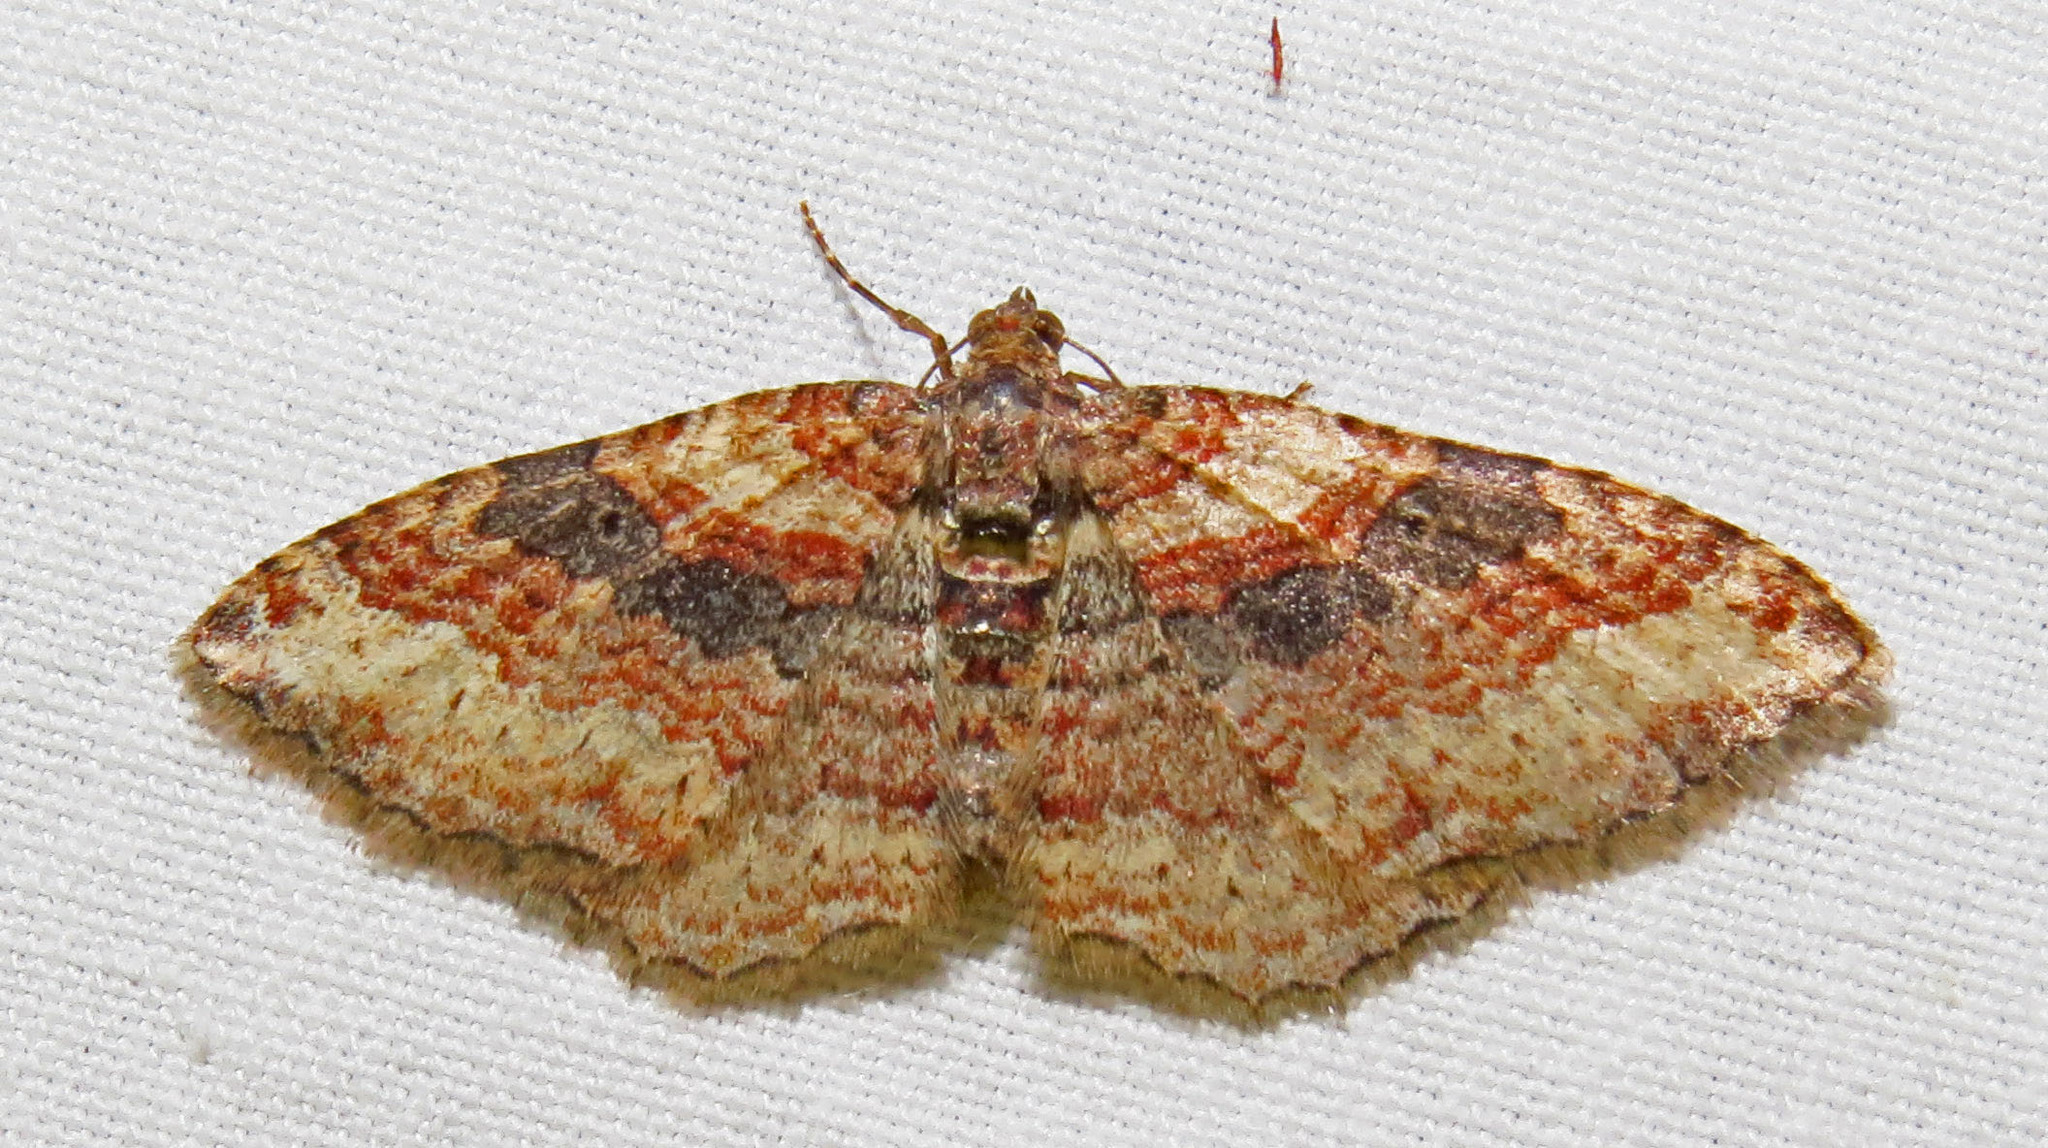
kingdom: Animalia
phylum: Arthropoda
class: Insecta
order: Lepidoptera
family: Geometridae
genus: Costaconvexa
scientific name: Costaconvexa centrostrigaria
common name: Bent-line carpet
